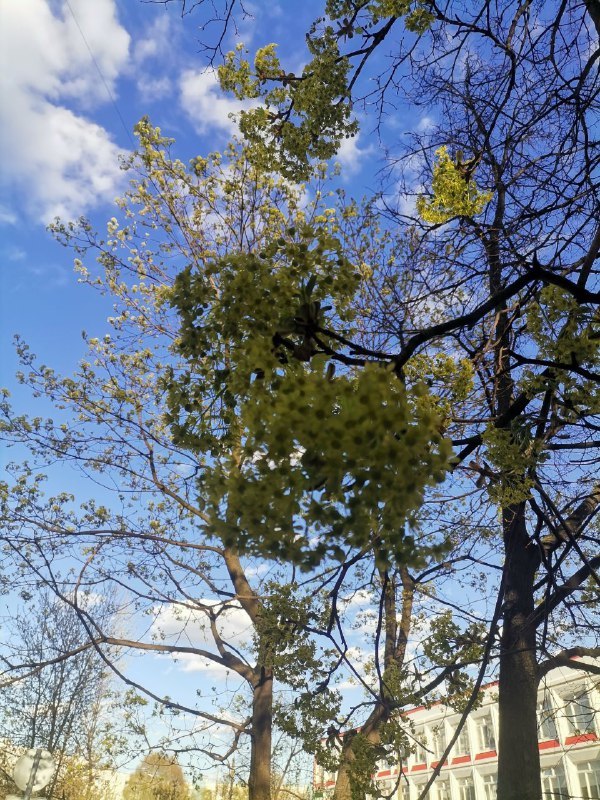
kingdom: Plantae
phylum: Tracheophyta
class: Magnoliopsida
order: Sapindales
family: Sapindaceae
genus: Acer
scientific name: Acer platanoides
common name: Norway maple
